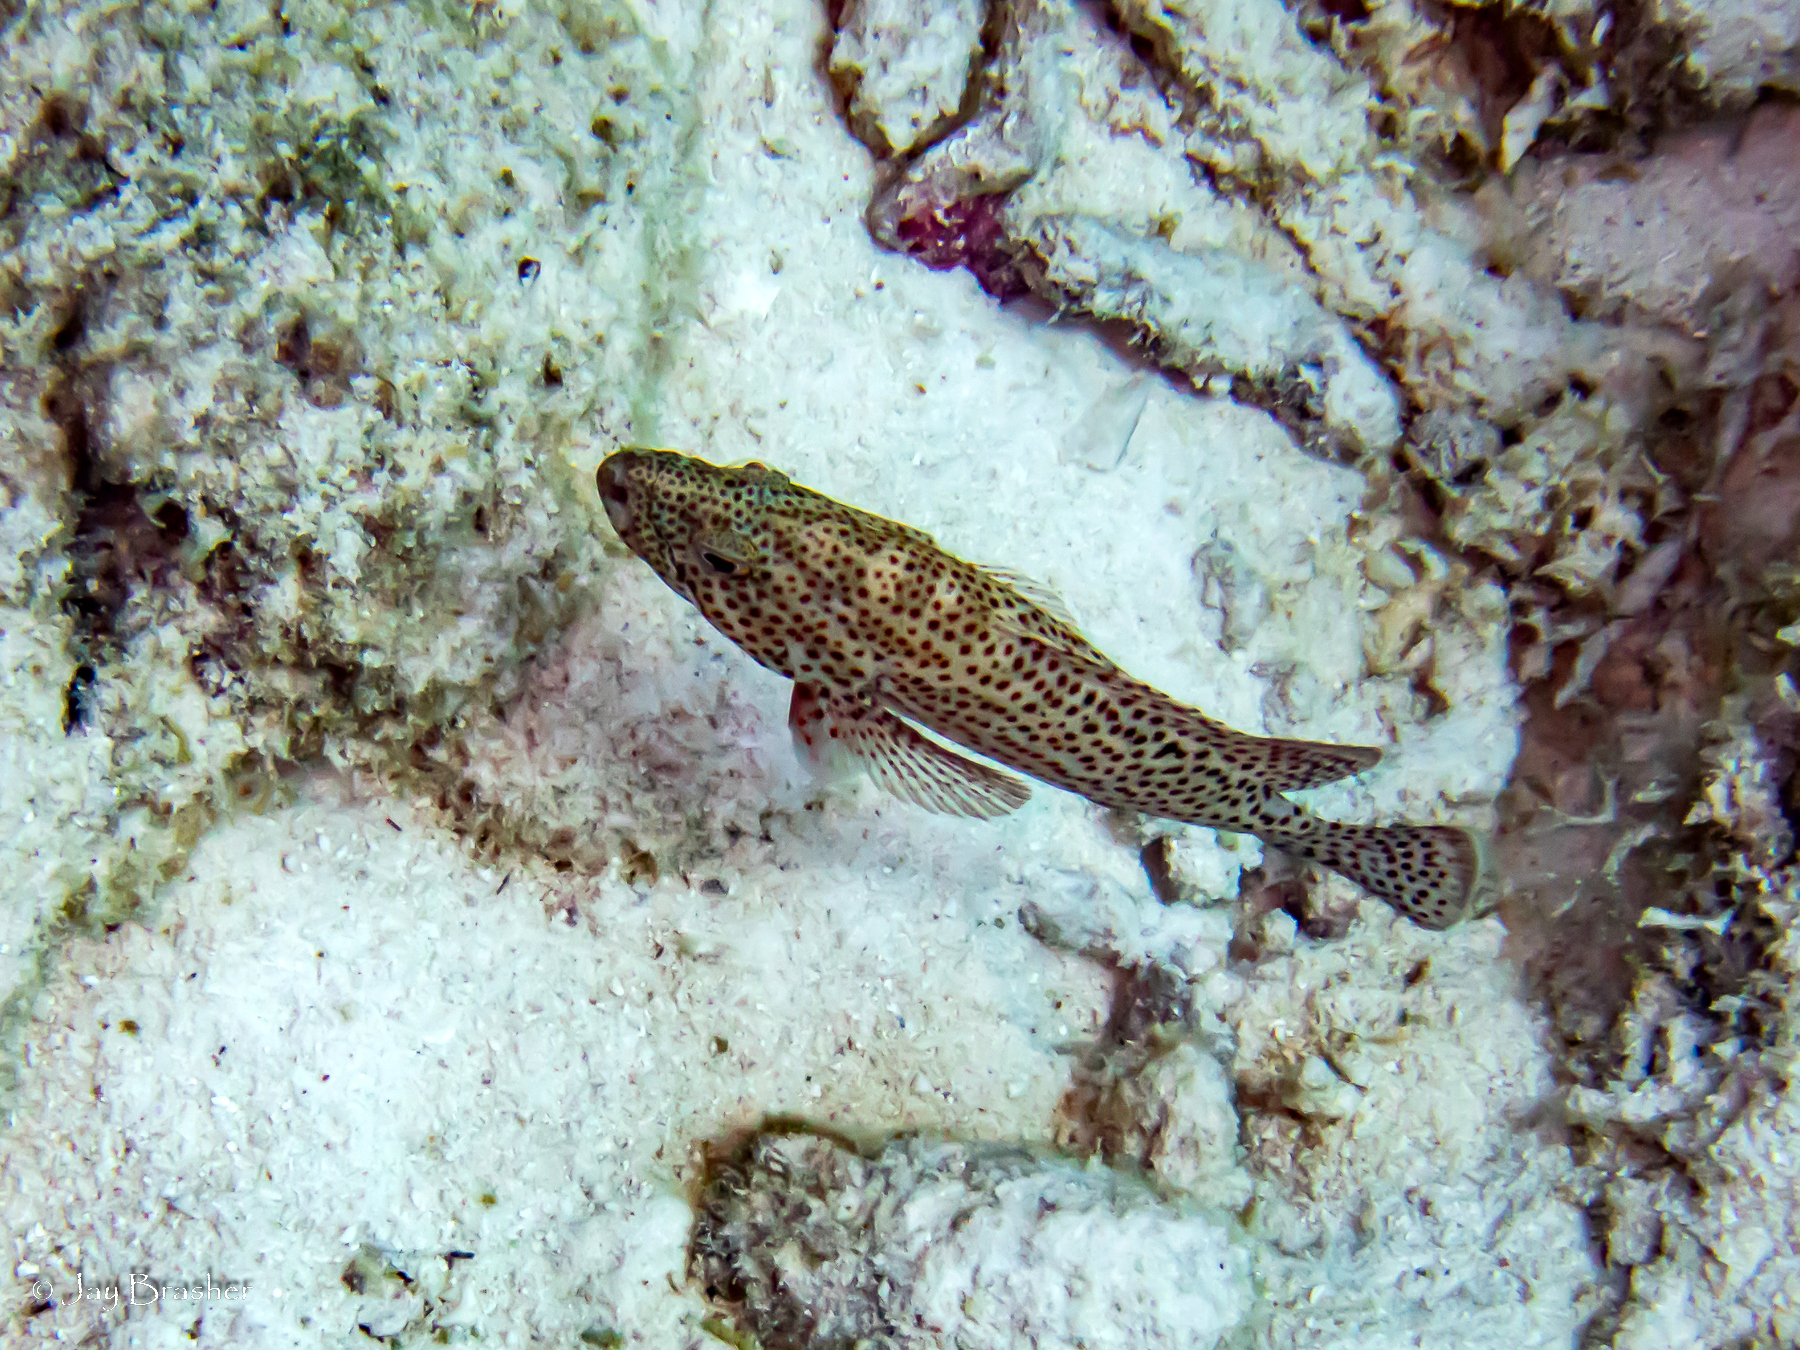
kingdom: Animalia
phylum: Chordata
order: Perciformes
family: Serranidae
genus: Cephalopholis
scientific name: Cephalopholis cruentata
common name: Graysby
